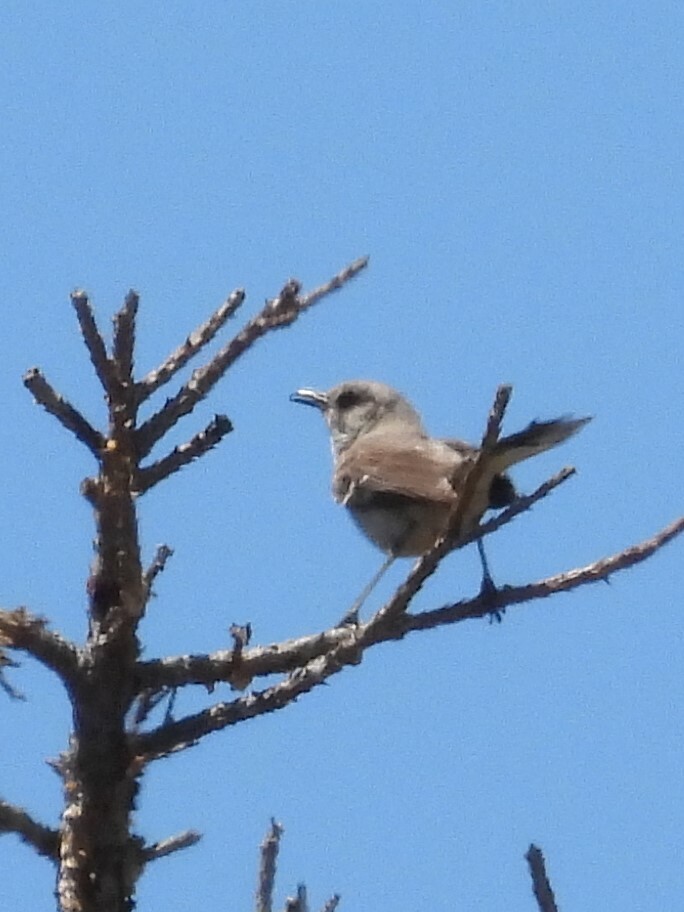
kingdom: Animalia
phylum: Chordata
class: Aves
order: Passeriformes
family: Mimidae
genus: Mimus
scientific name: Mimus polyglottos
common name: Northern mockingbird
